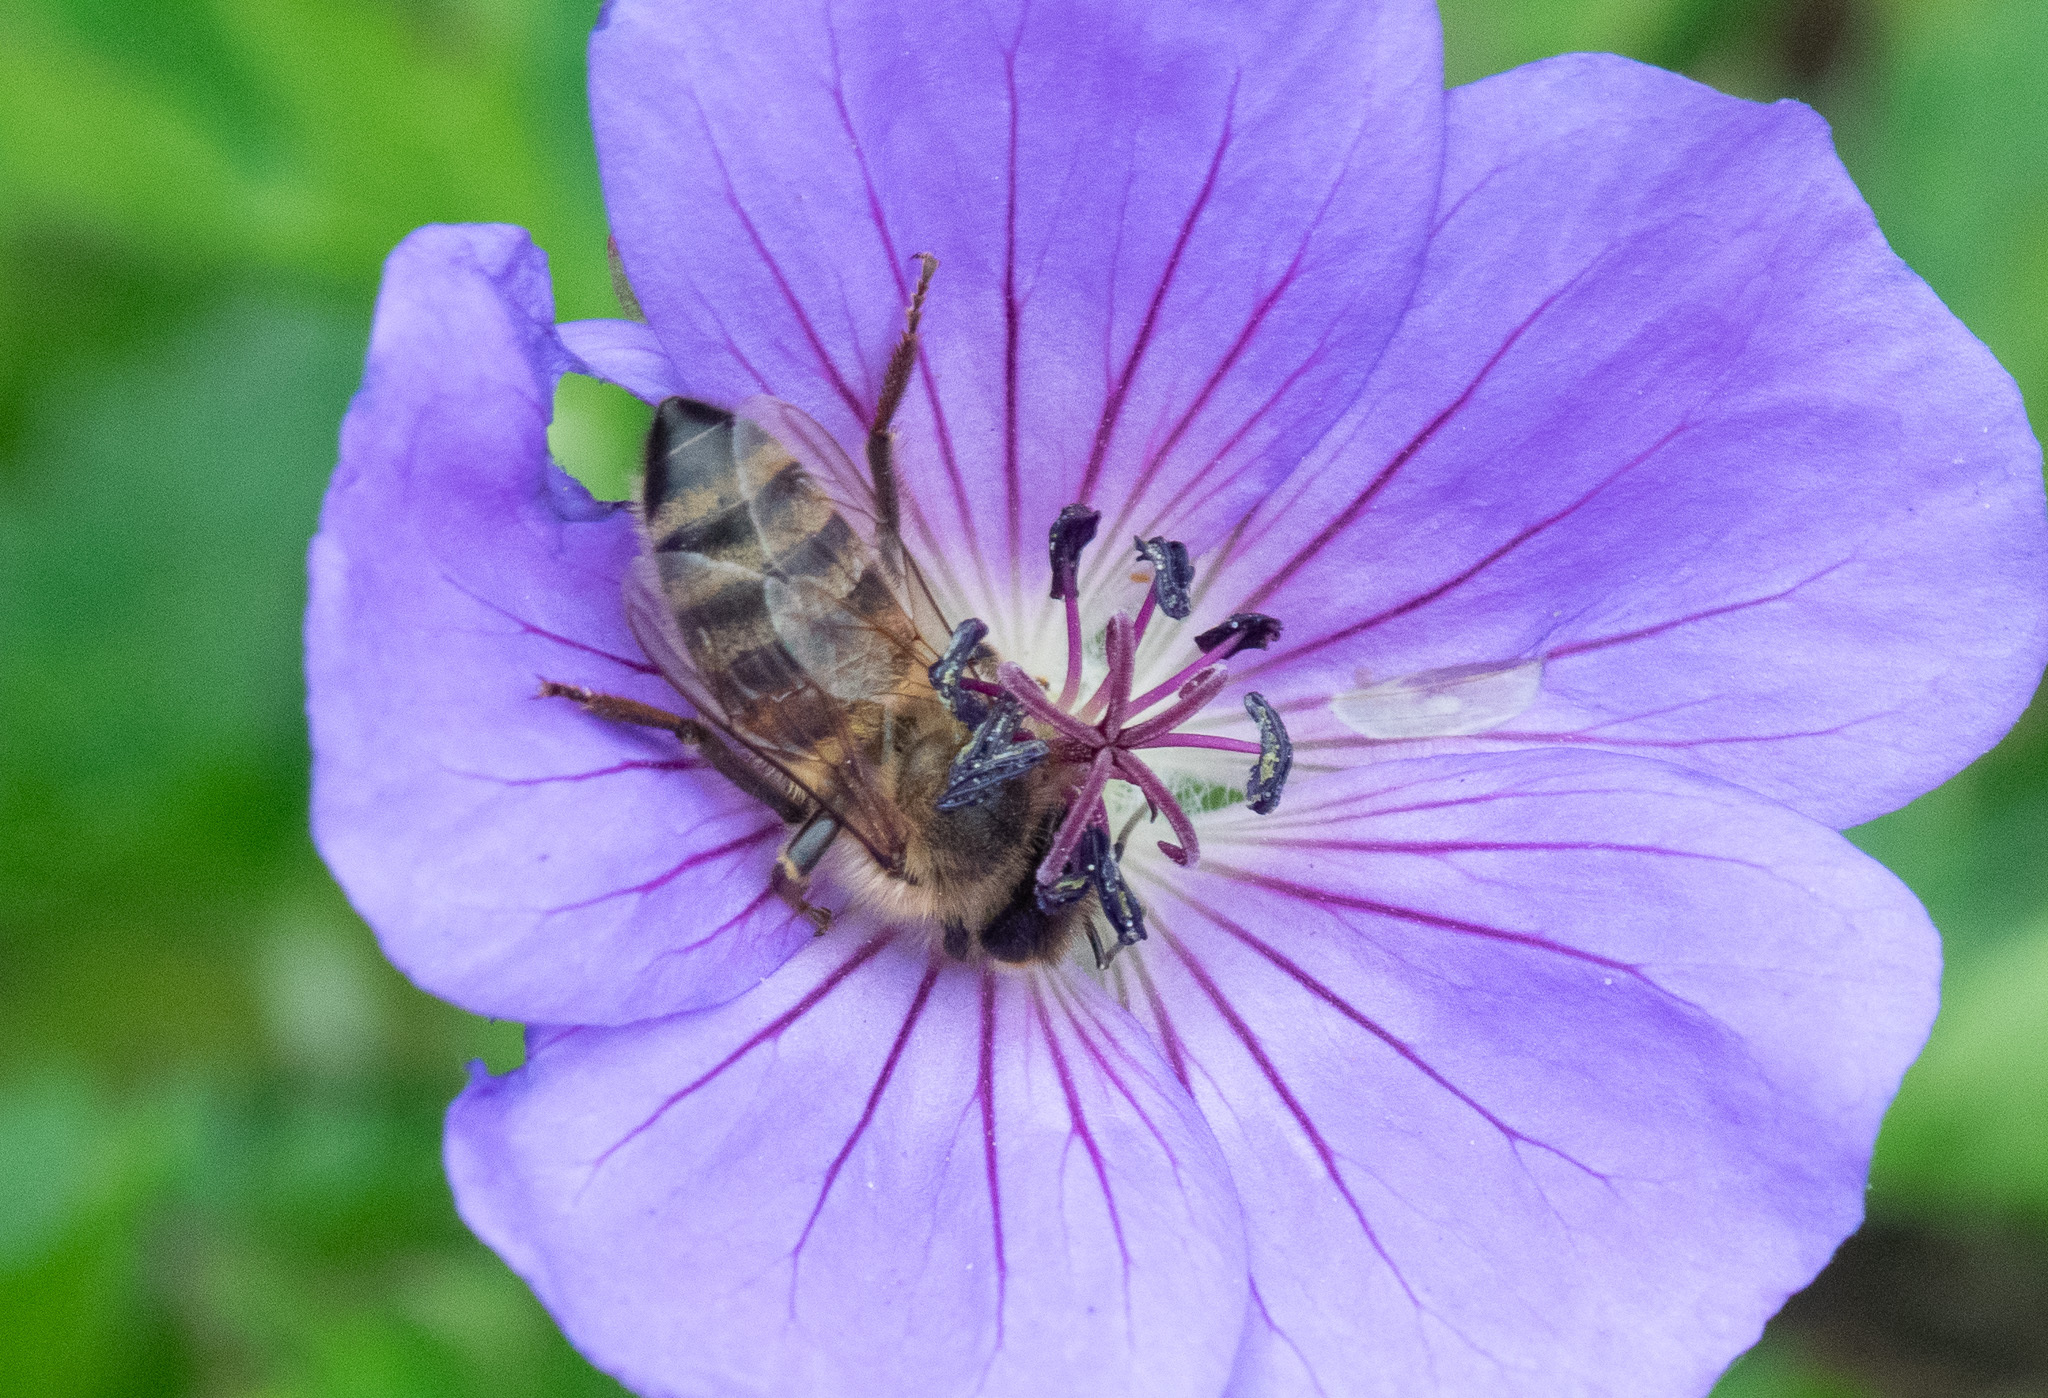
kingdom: Animalia
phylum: Arthropoda
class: Insecta
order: Hymenoptera
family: Apidae
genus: Apis
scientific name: Apis mellifera
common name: Honey bee
